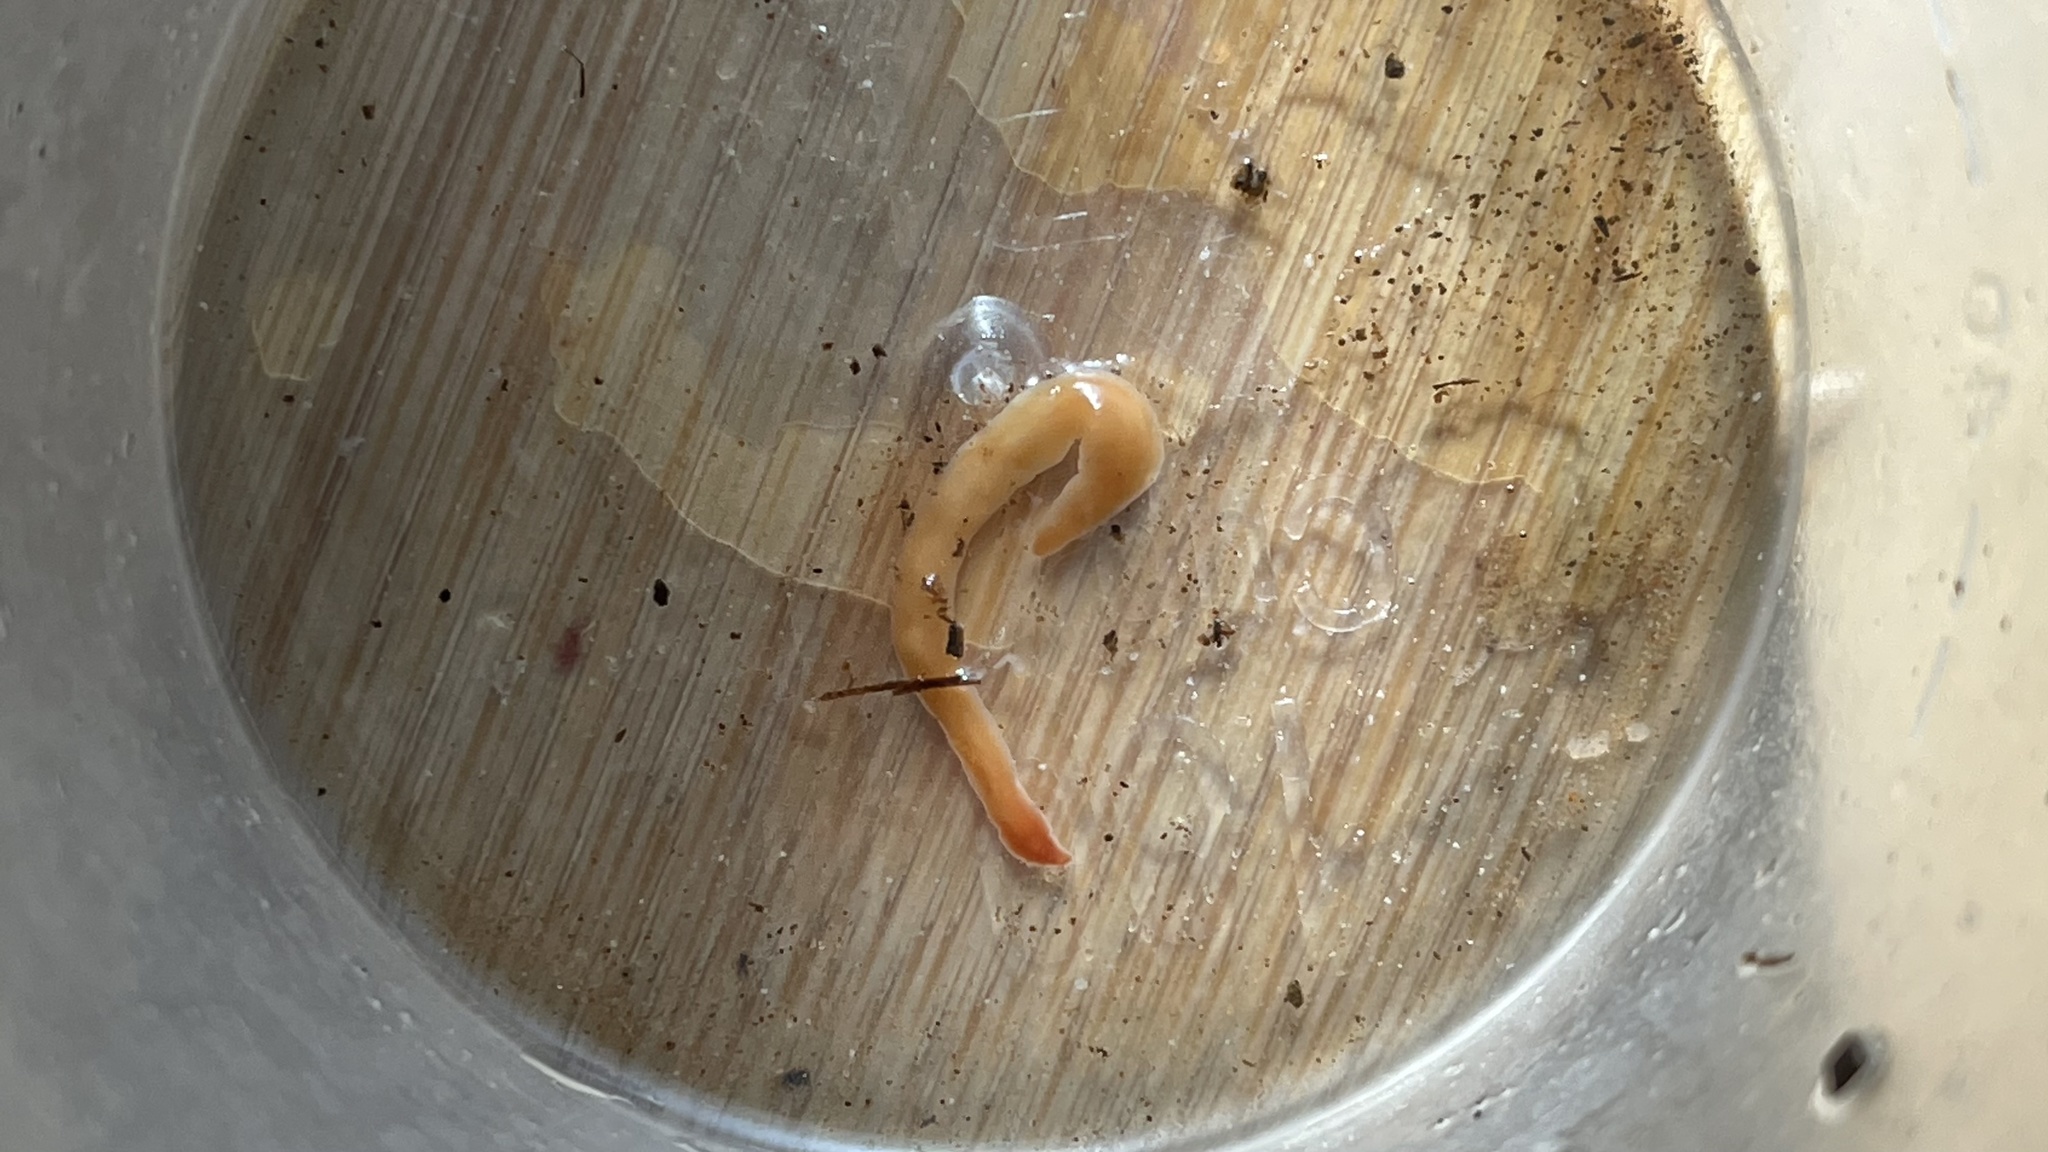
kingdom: Animalia
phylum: Platyhelminthes
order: Tricladida
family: Geoplanidae
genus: Australoplana
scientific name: Australoplana alba
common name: Australian flatworm
